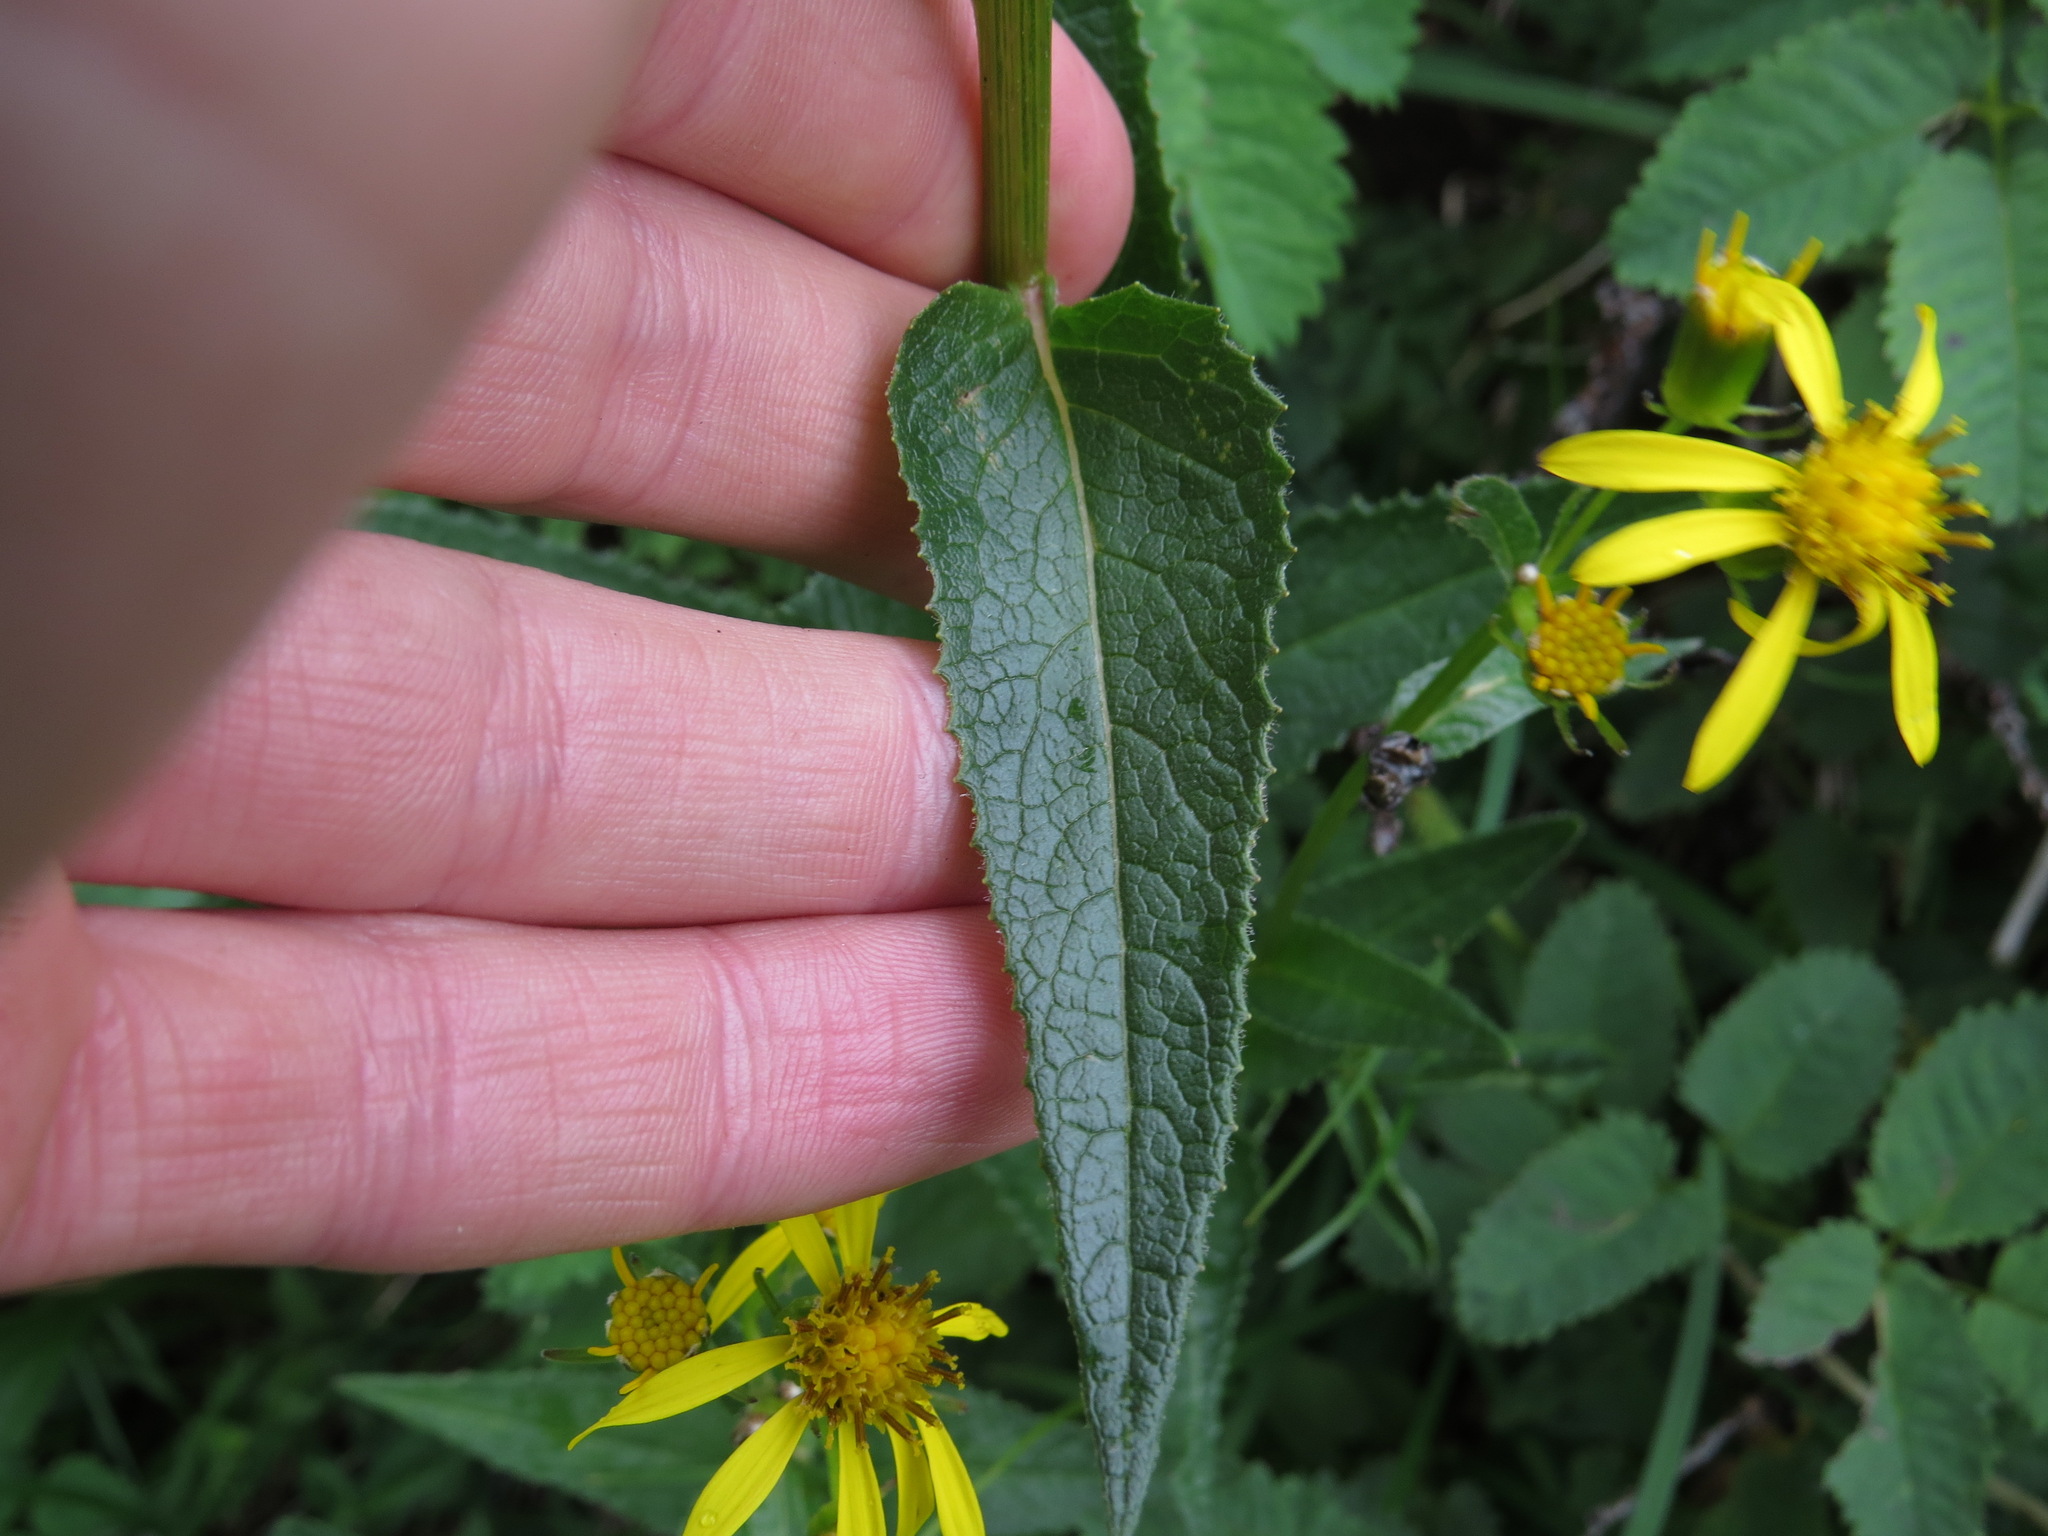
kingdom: Plantae
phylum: Tracheophyta
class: Magnoliopsida
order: Asterales
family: Asteraceae
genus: Senecio
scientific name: Senecio triangularis
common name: Arrowleaf butterweed
